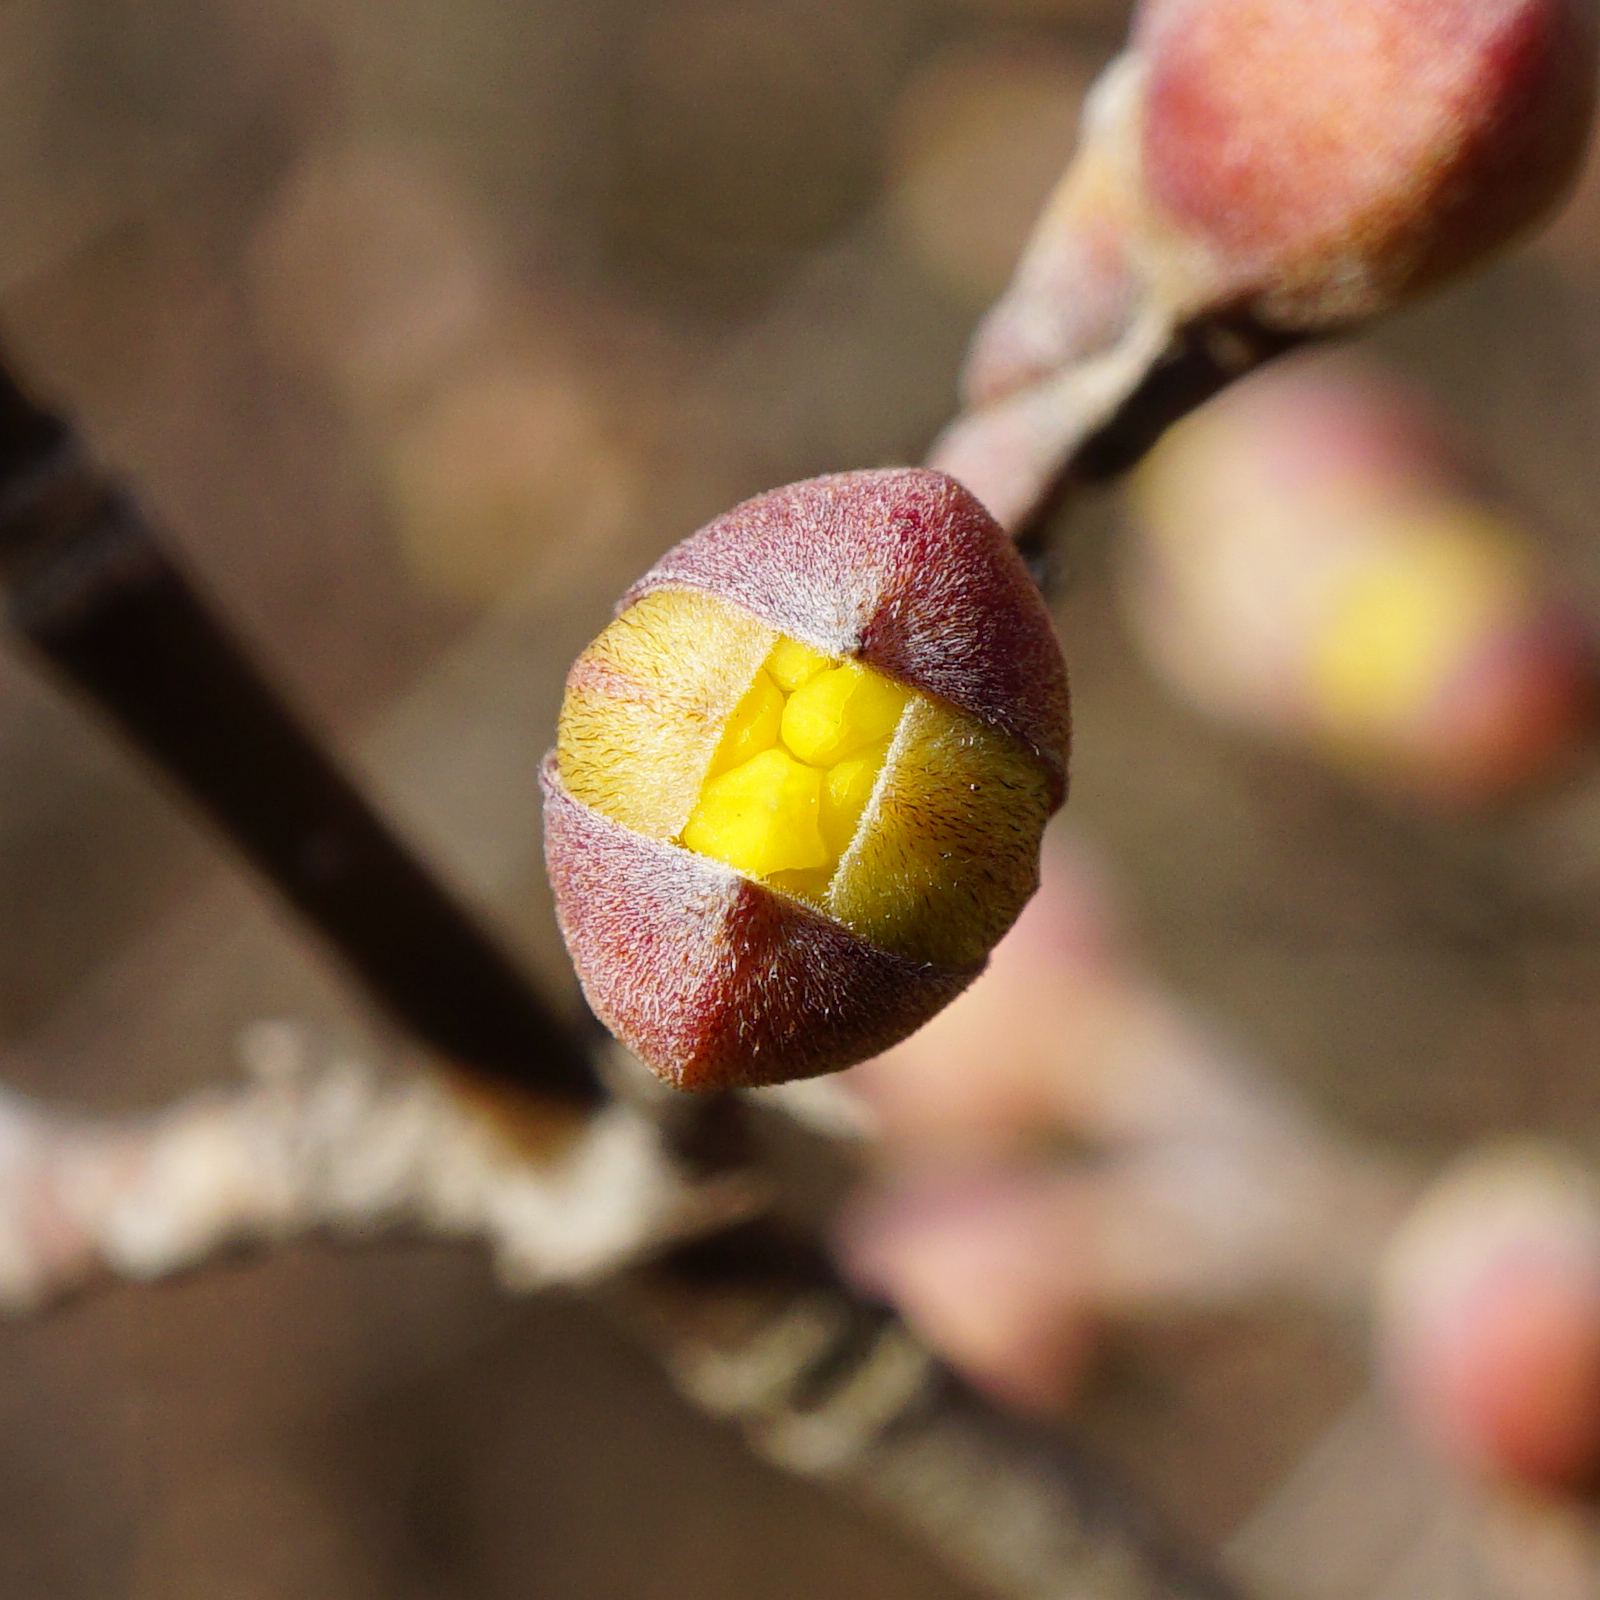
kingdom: Plantae
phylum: Tracheophyta
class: Magnoliopsida
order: Cornales
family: Cornaceae
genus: Cornus
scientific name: Cornus mas
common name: Cornelian-cherry
